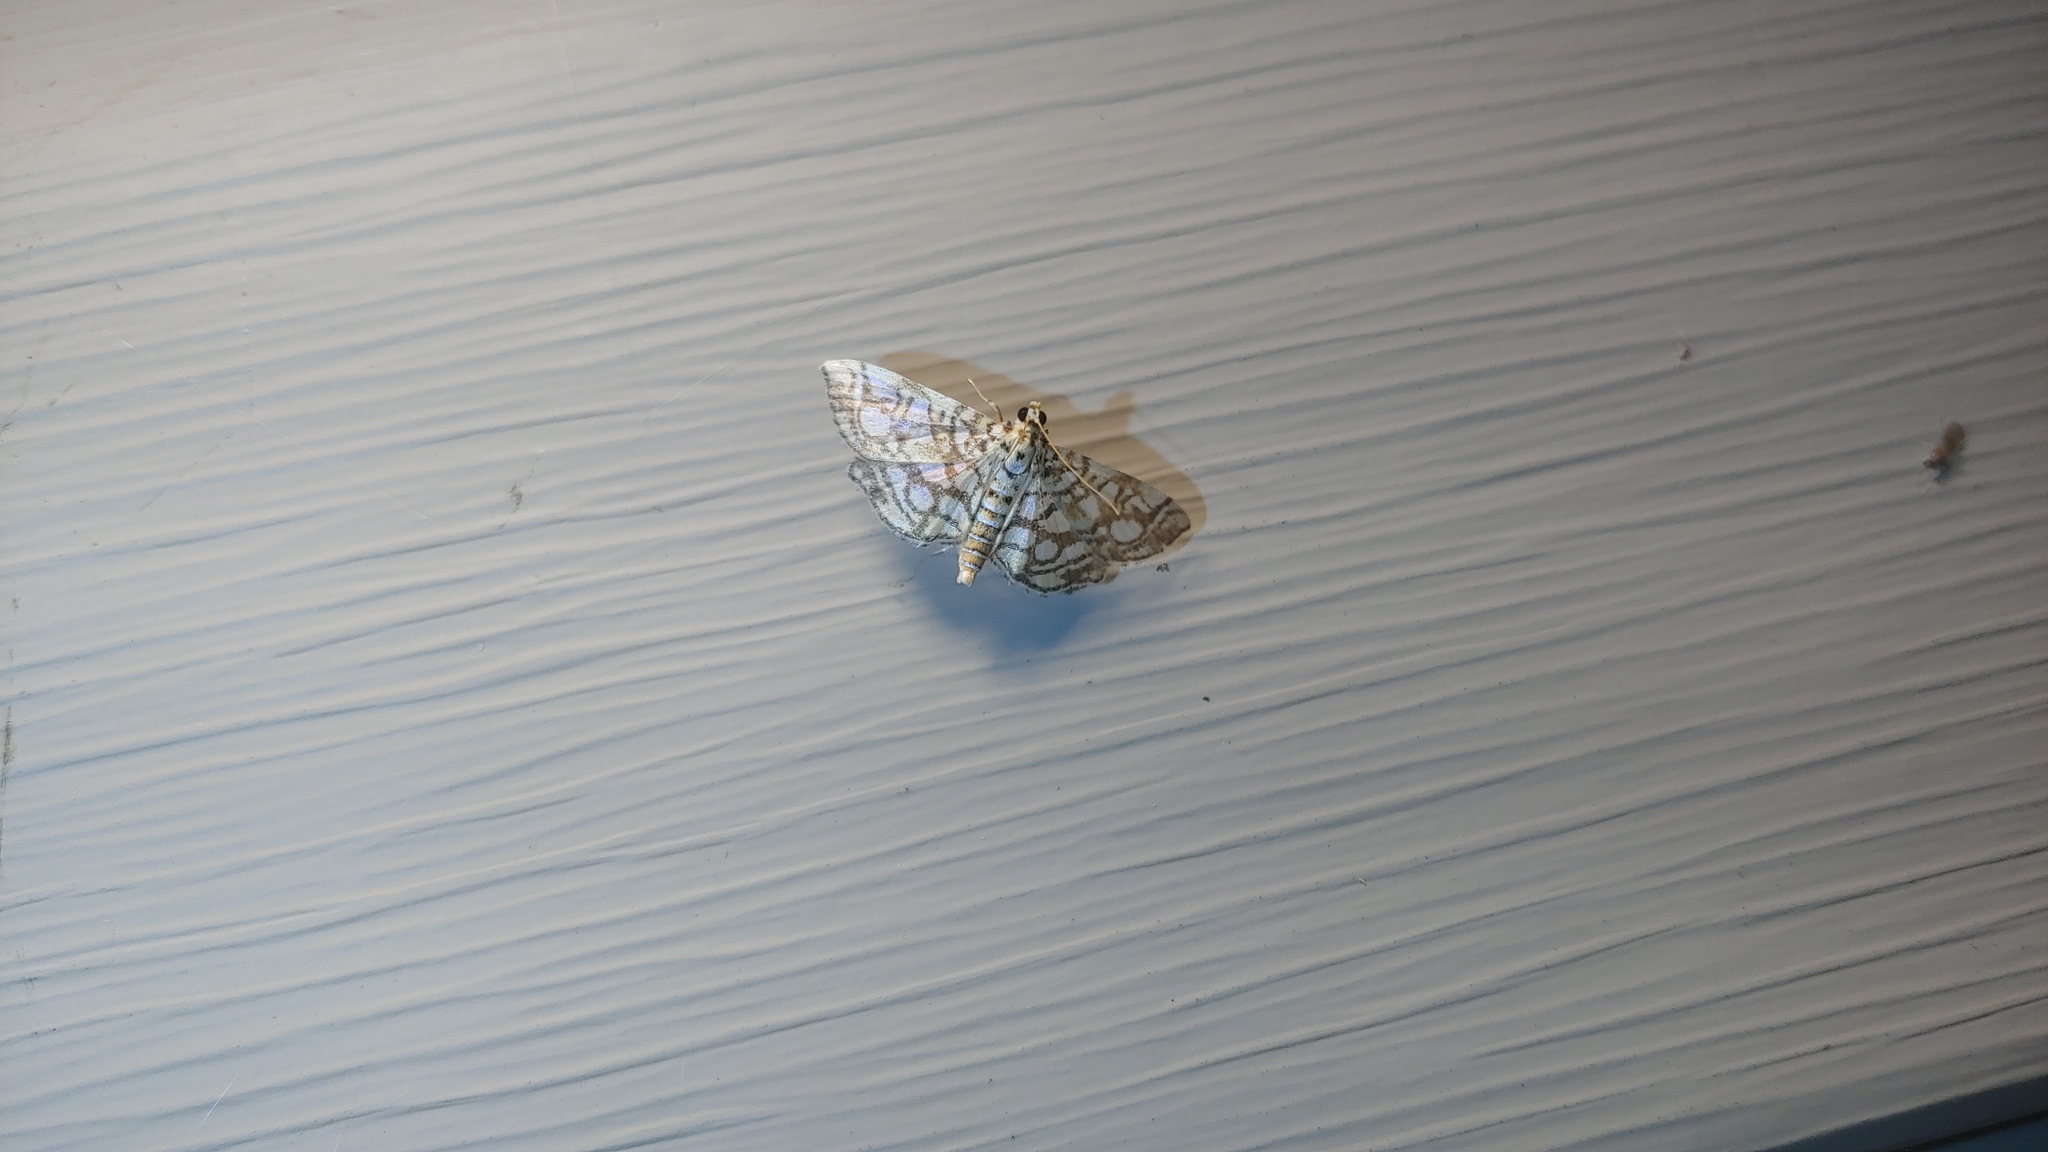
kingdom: Animalia
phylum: Arthropoda
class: Insecta
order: Lepidoptera
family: Crambidae
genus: Lygropia
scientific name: Lygropia rivulalis
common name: Bog lygropia moth
